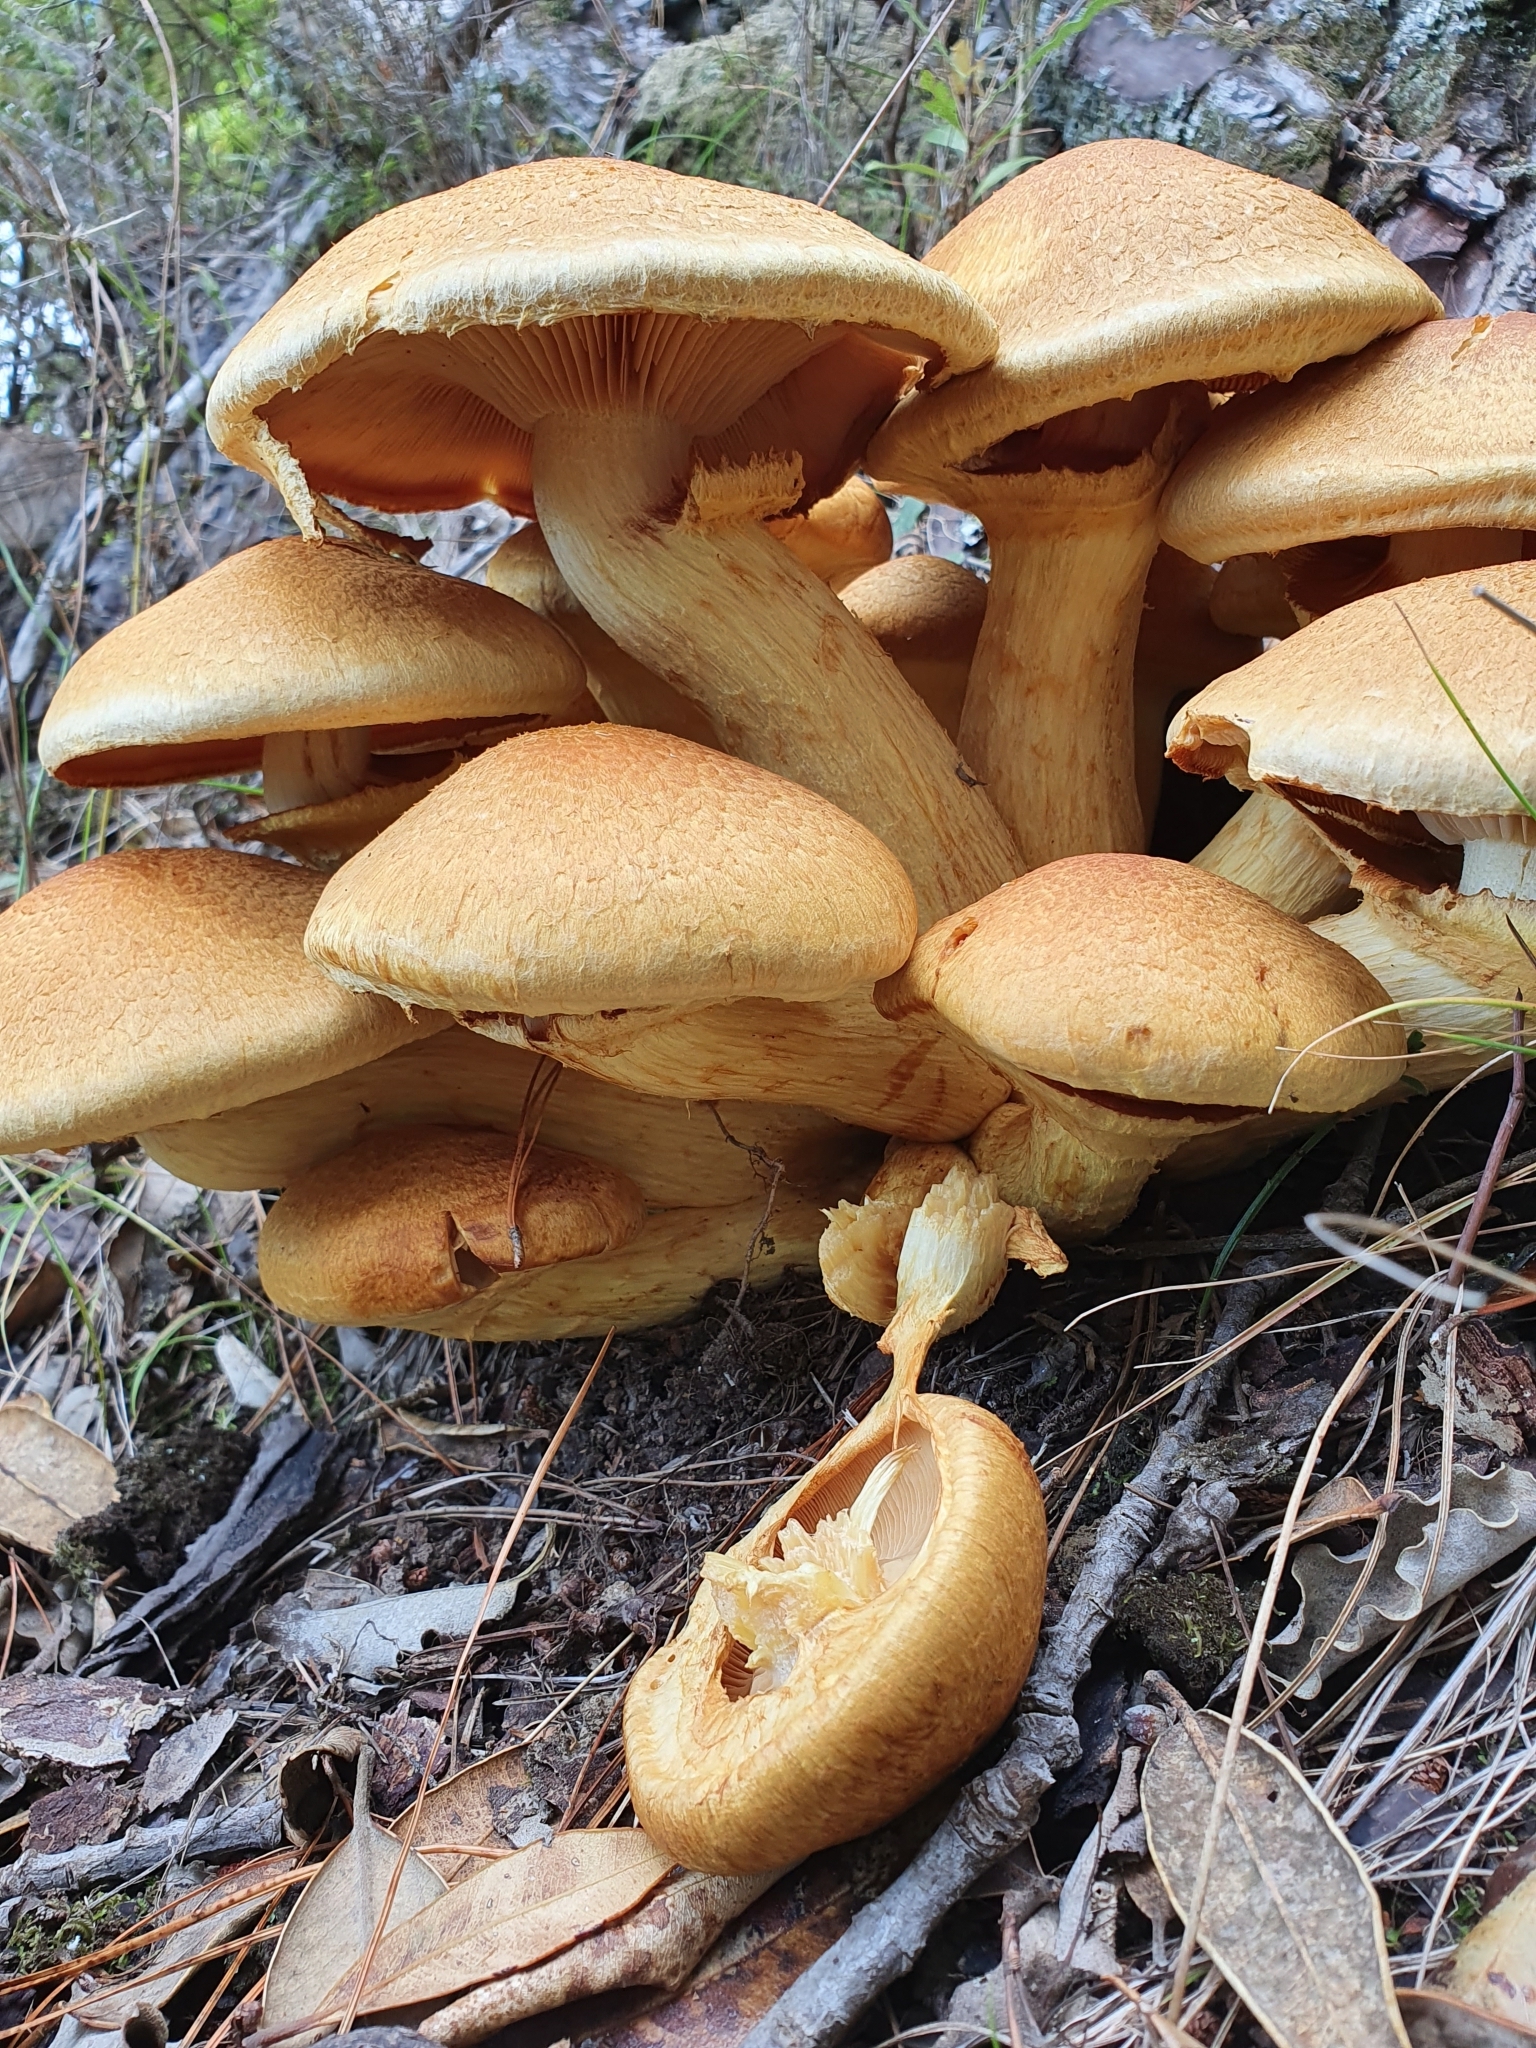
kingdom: Fungi
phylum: Basidiomycota
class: Agaricomycetes
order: Agaricales
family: Hymenogastraceae
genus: Gymnopilus
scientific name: Gymnopilus junonius
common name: Spectacular rustgill
